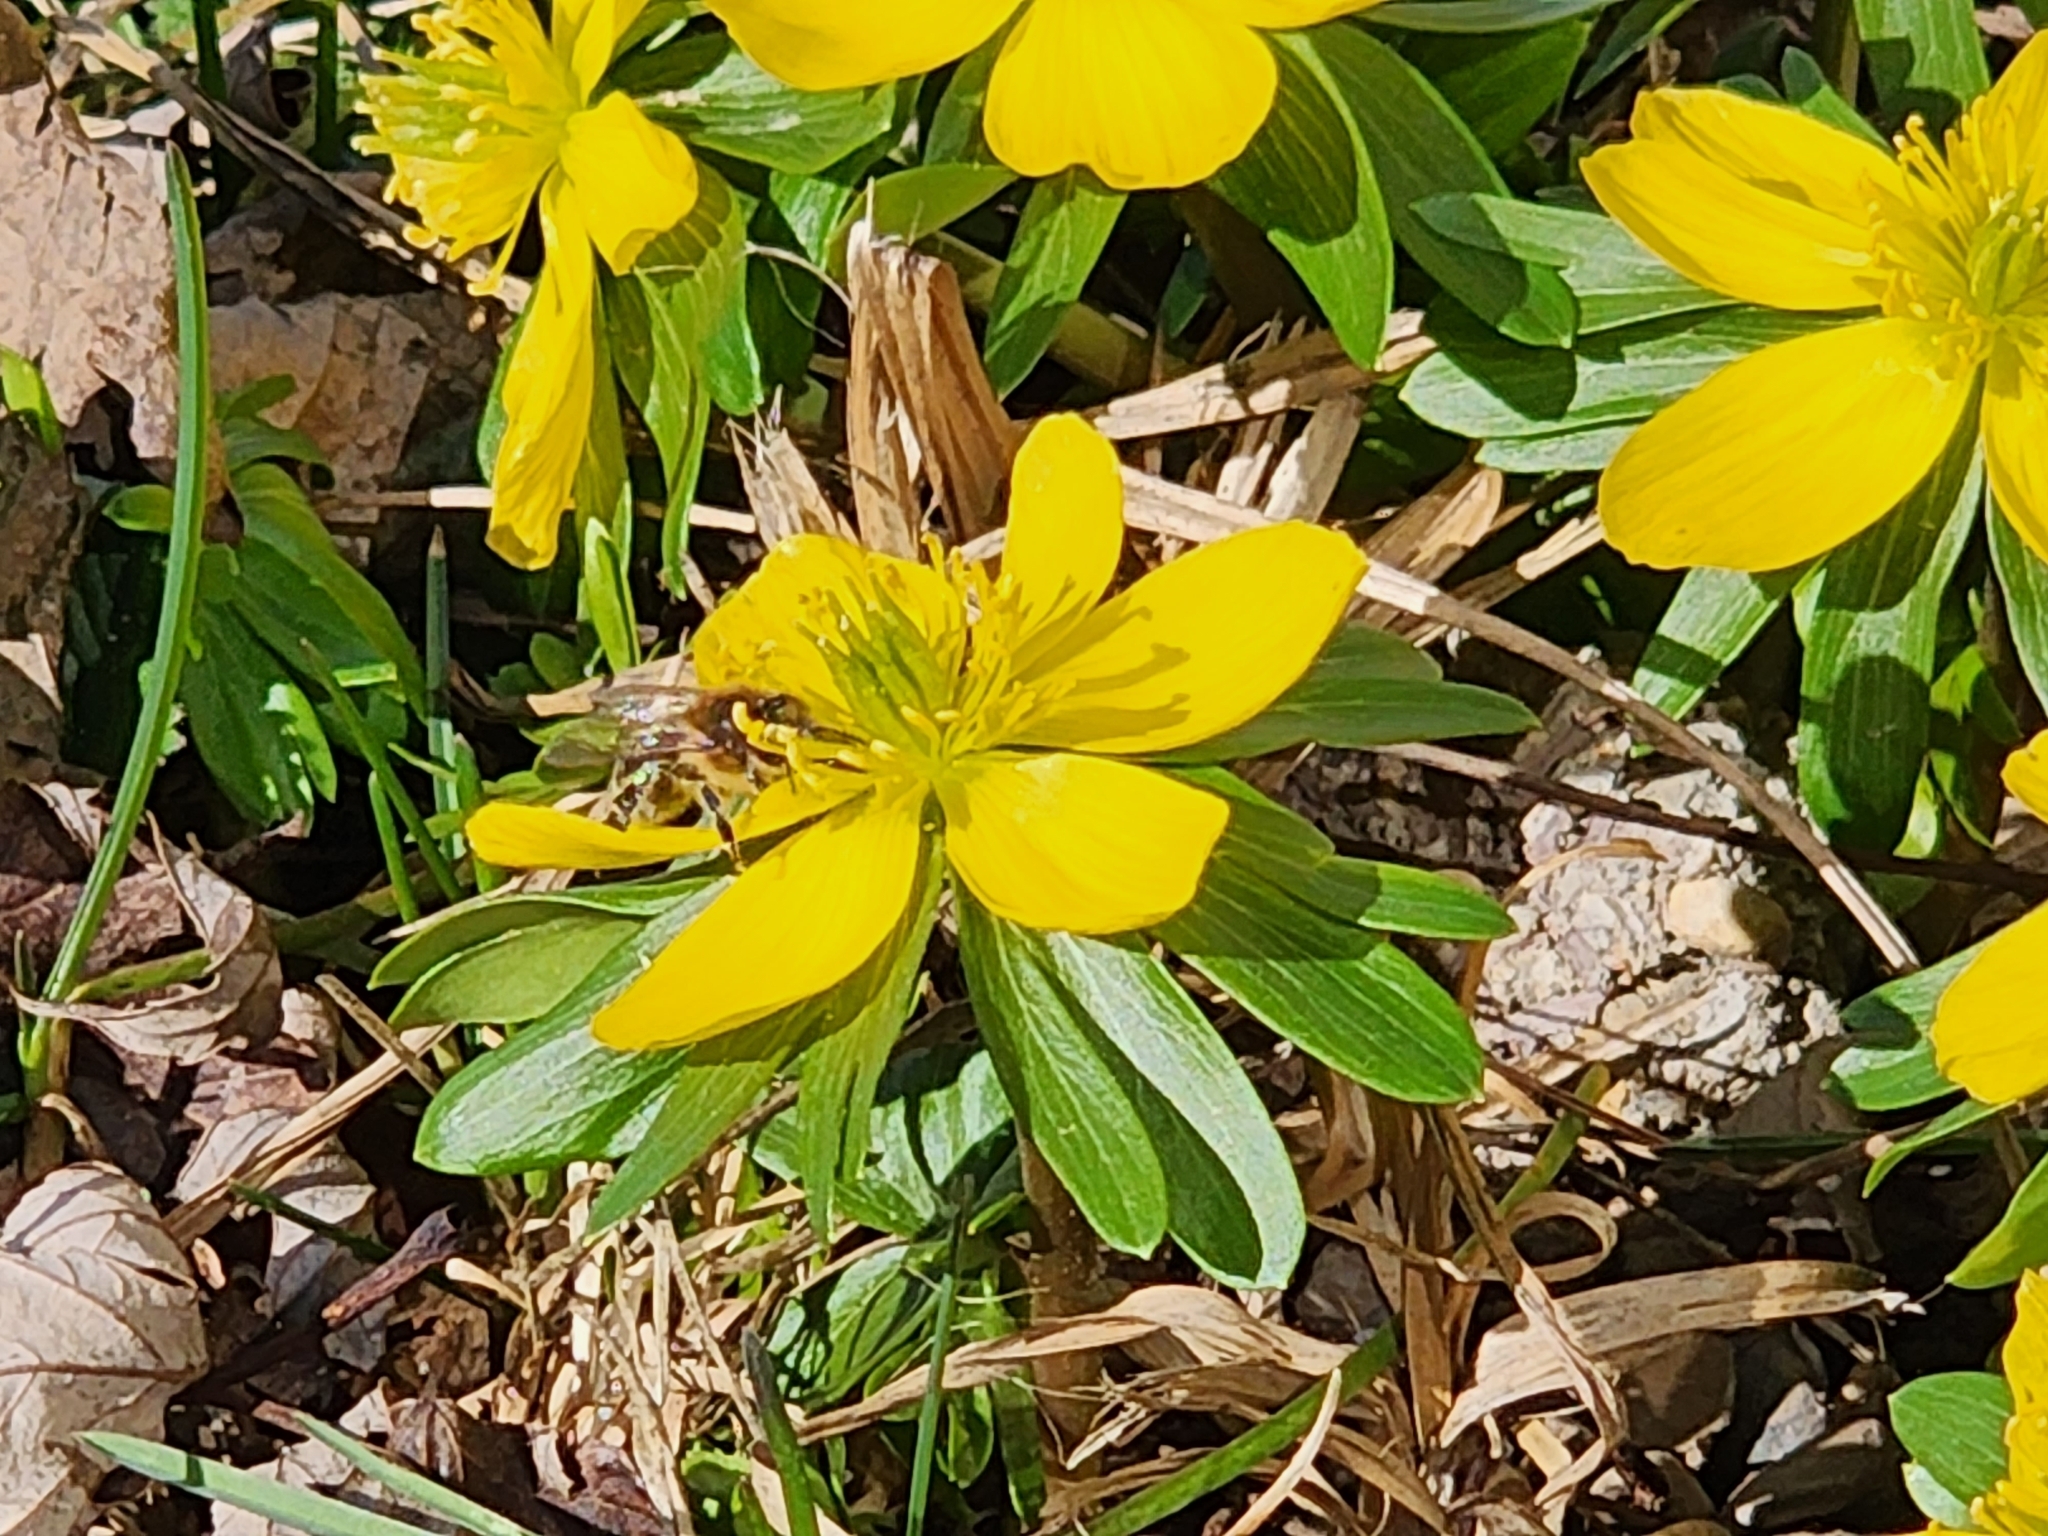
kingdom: Animalia
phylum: Arthropoda
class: Insecta
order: Hymenoptera
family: Apidae
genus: Apis
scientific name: Apis mellifera
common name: Honey bee
